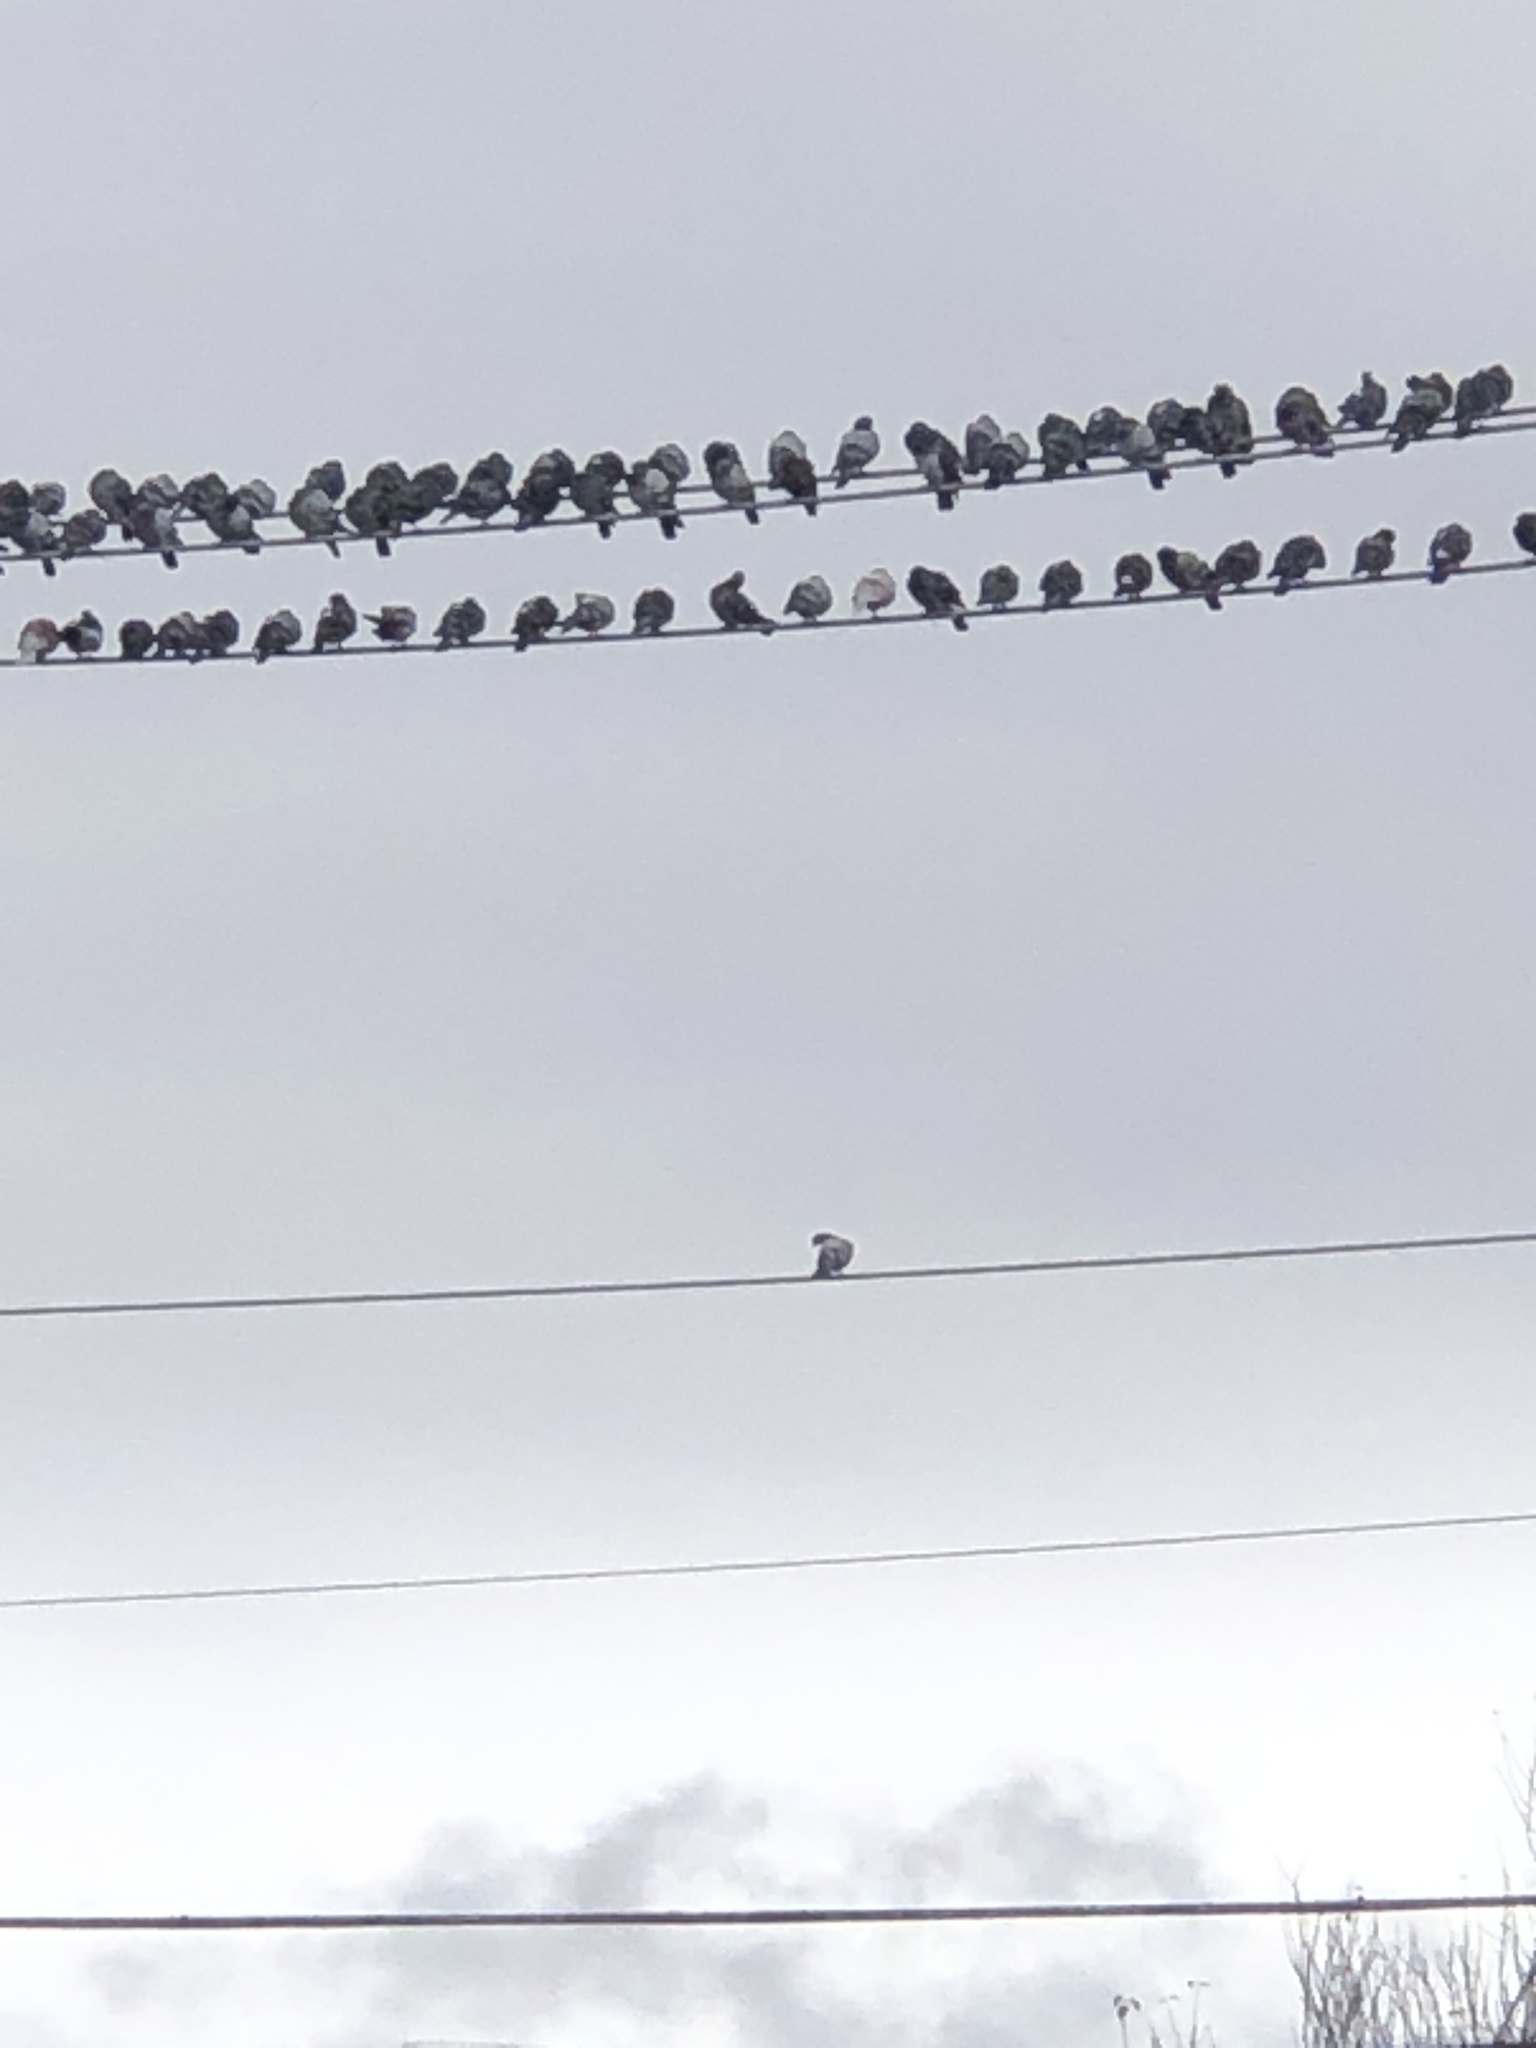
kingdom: Animalia
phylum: Chordata
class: Aves
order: Columbiformes
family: Columbidae
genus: Columba
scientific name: Columba livia
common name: Rock pigeon
